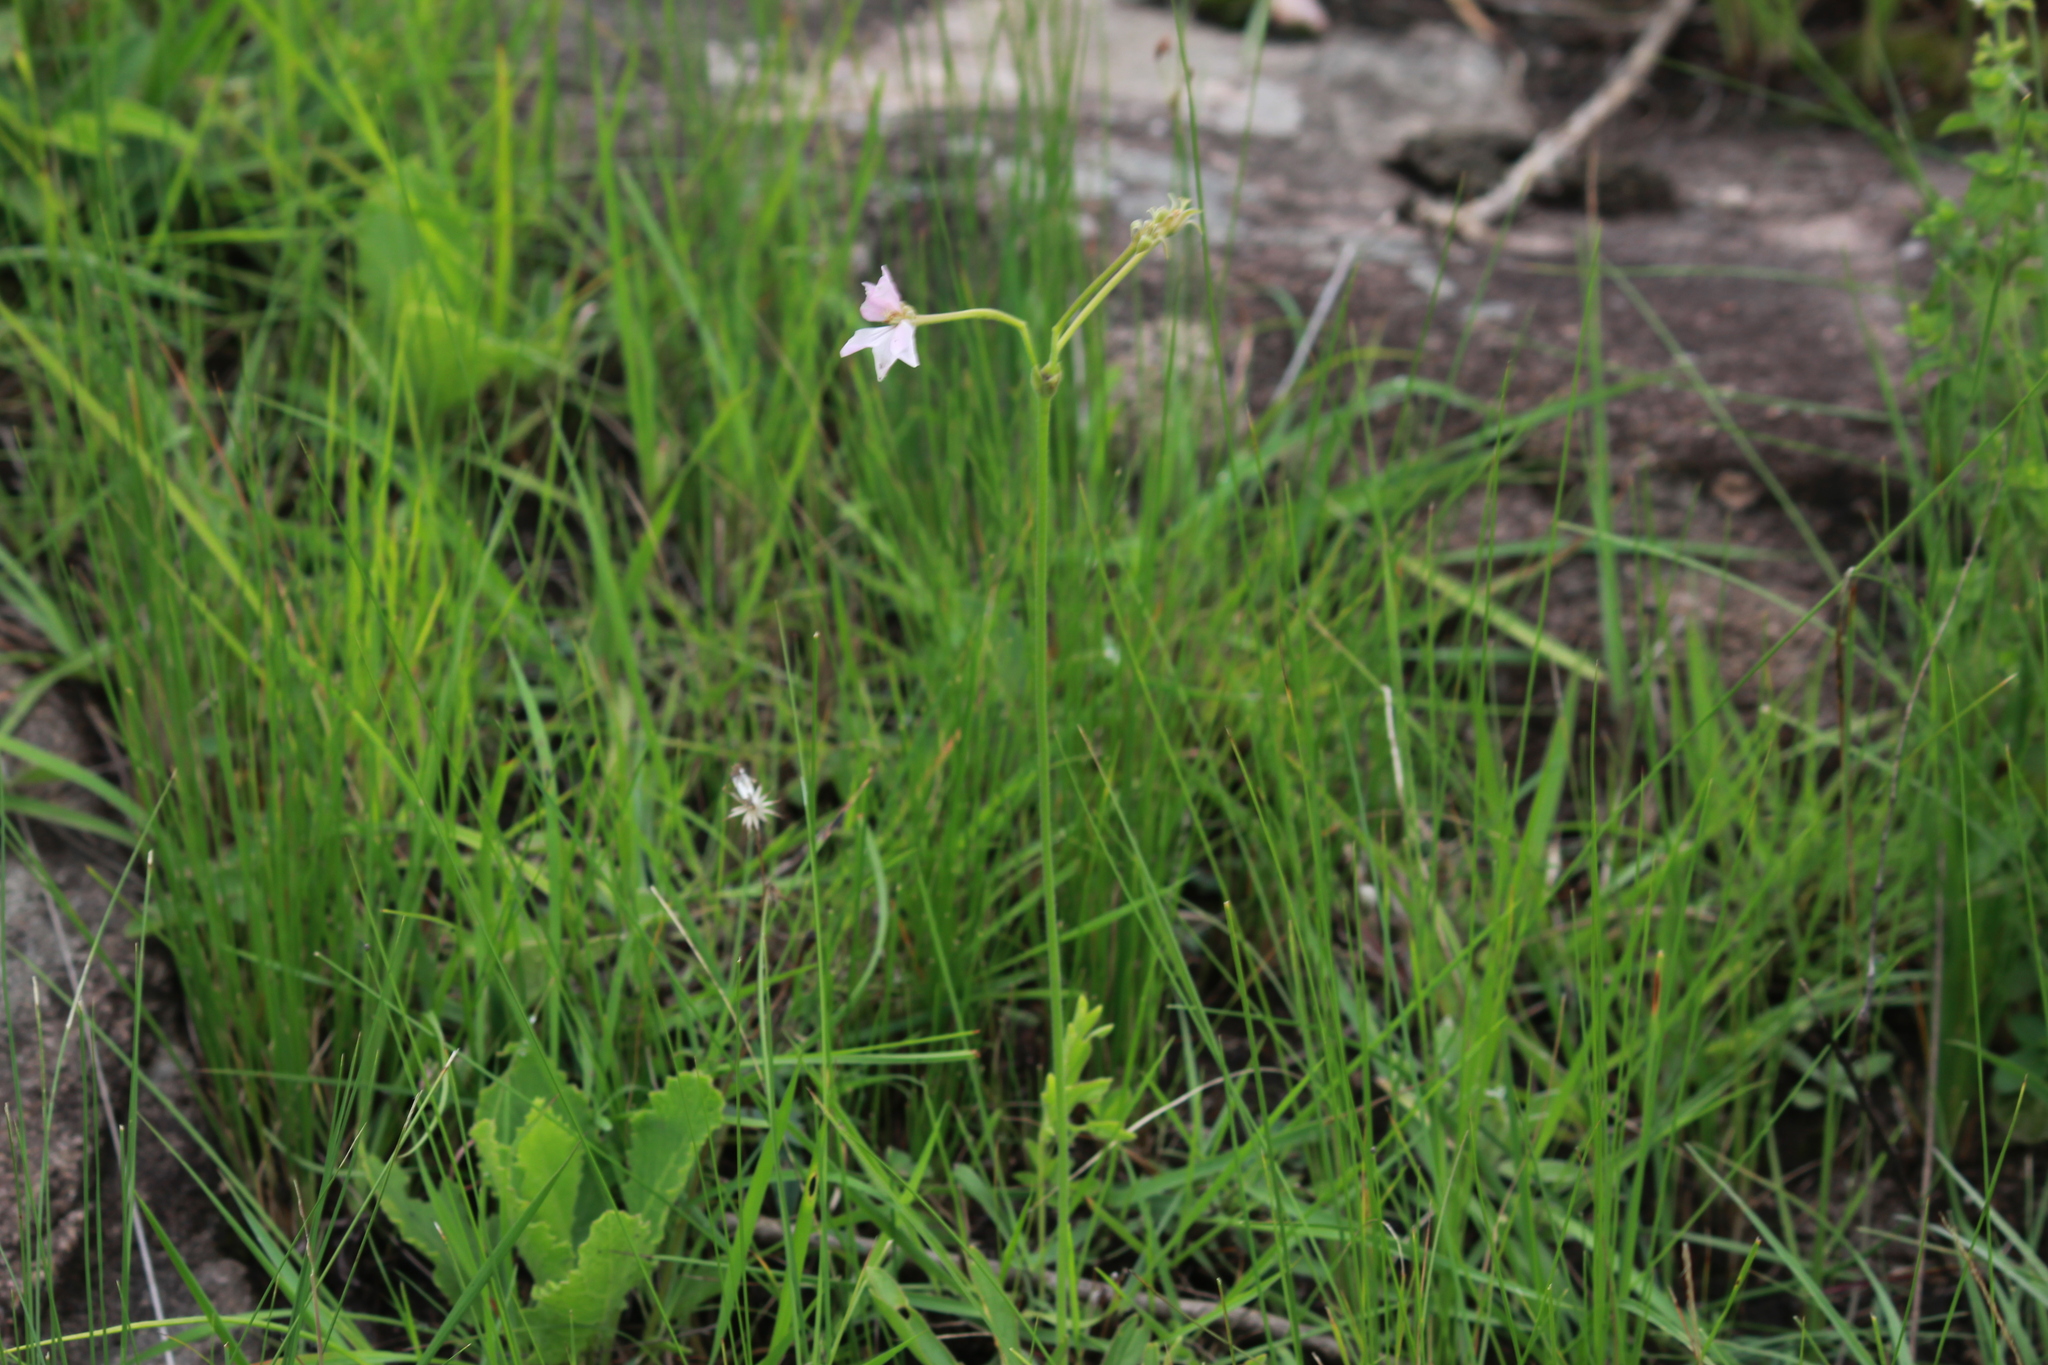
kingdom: Plantae
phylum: Tracheophyta
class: Magnoliopsida
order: Geraniales
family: Geraniaceae
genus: Pelargonium
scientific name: Pelargonium luridum
